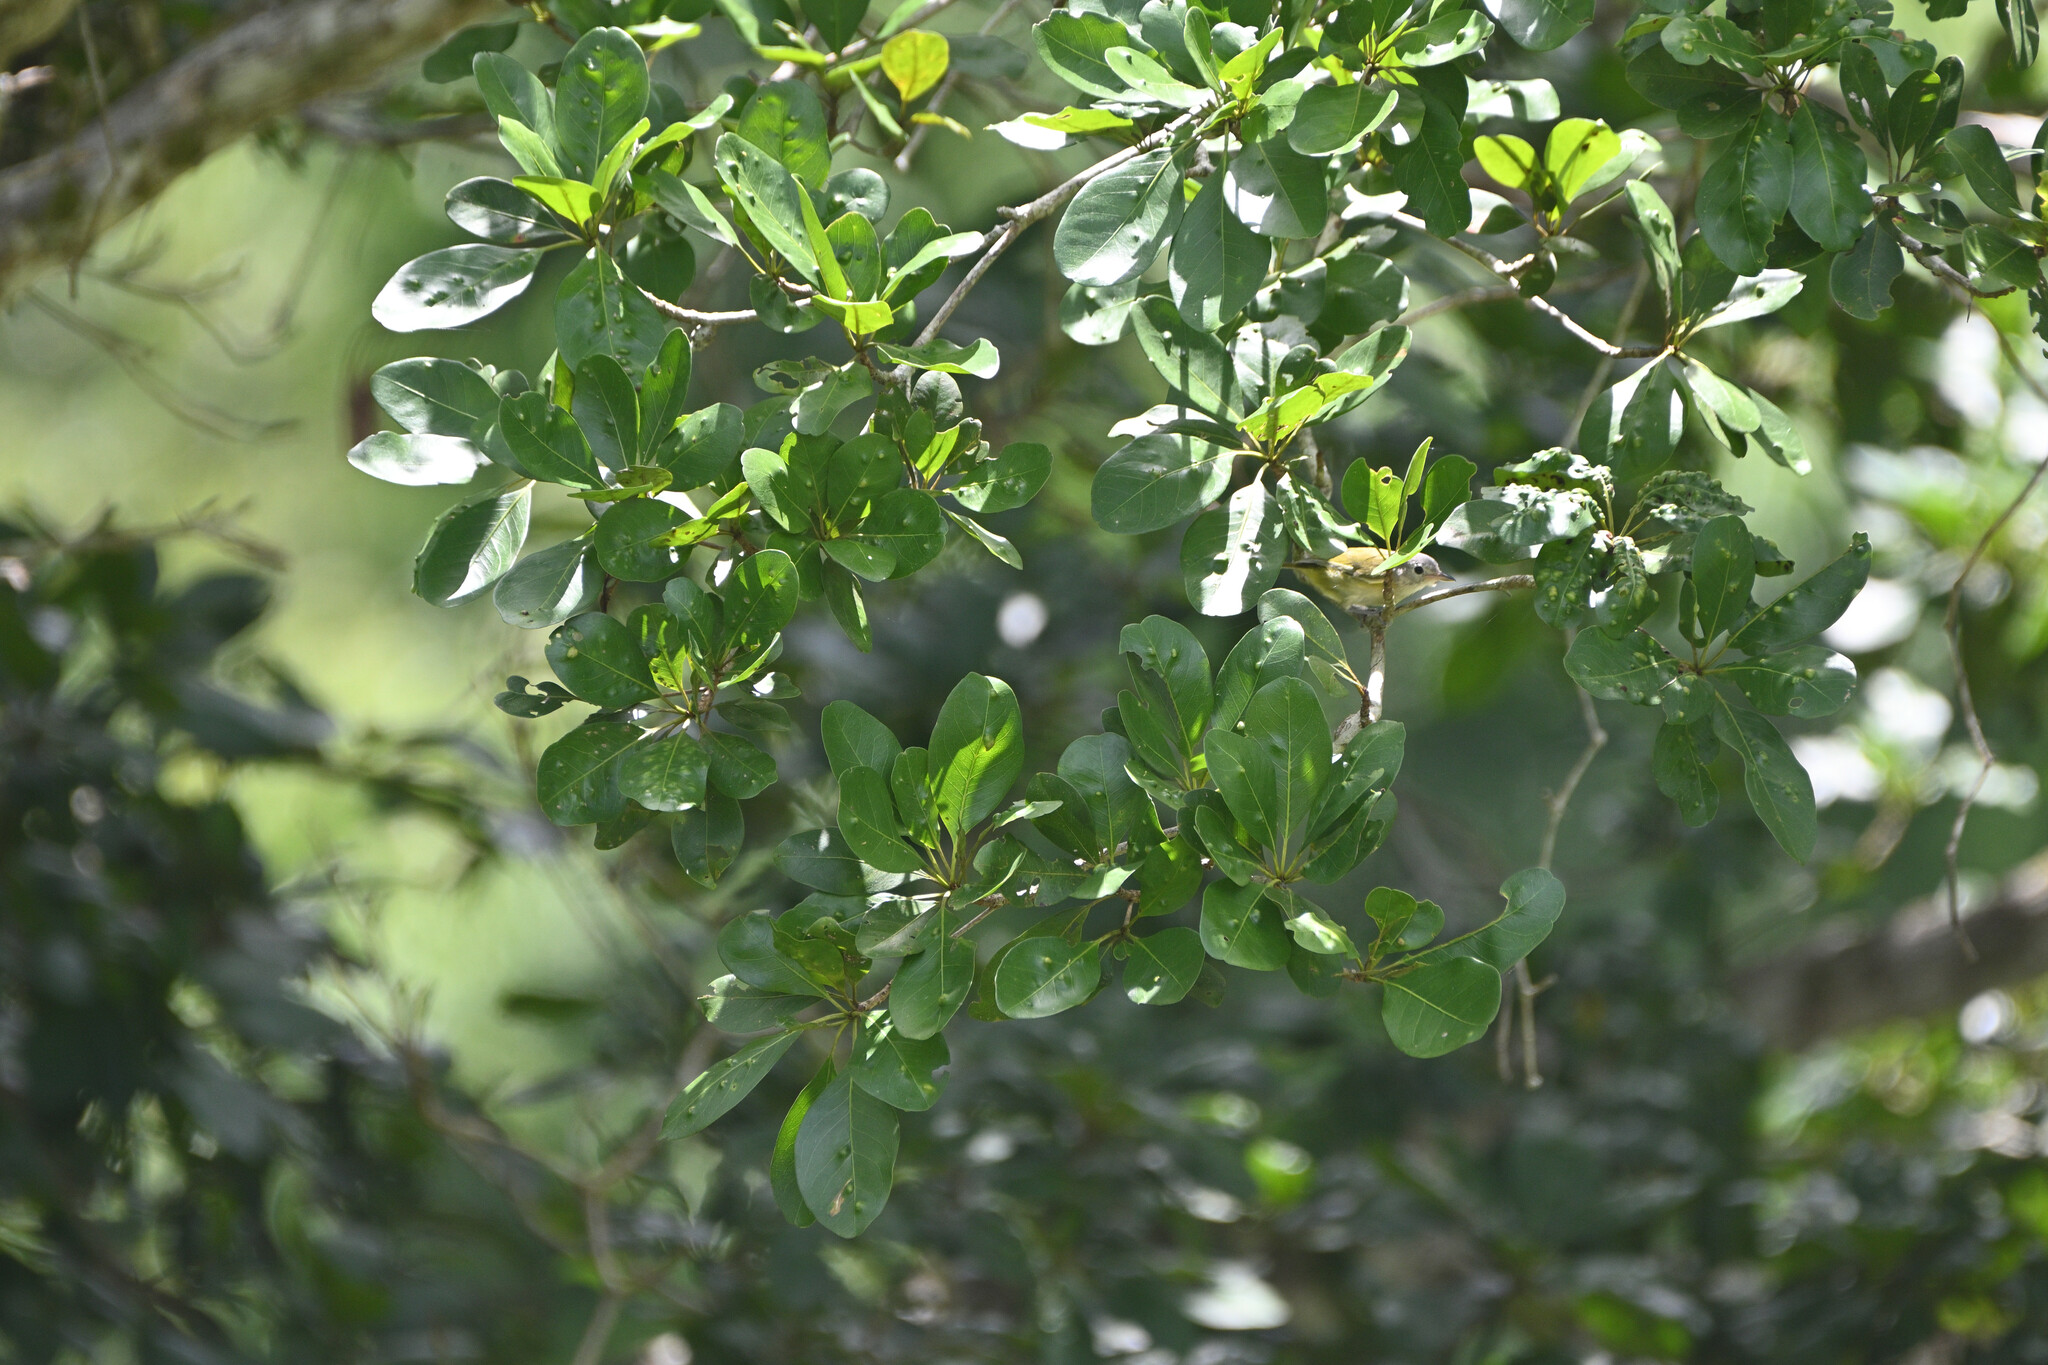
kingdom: Animalia
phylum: Chordata
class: Aves
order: Passeriformes
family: Parulidae
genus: Setophaga
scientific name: Setophaga petechia
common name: Yellow warbler
